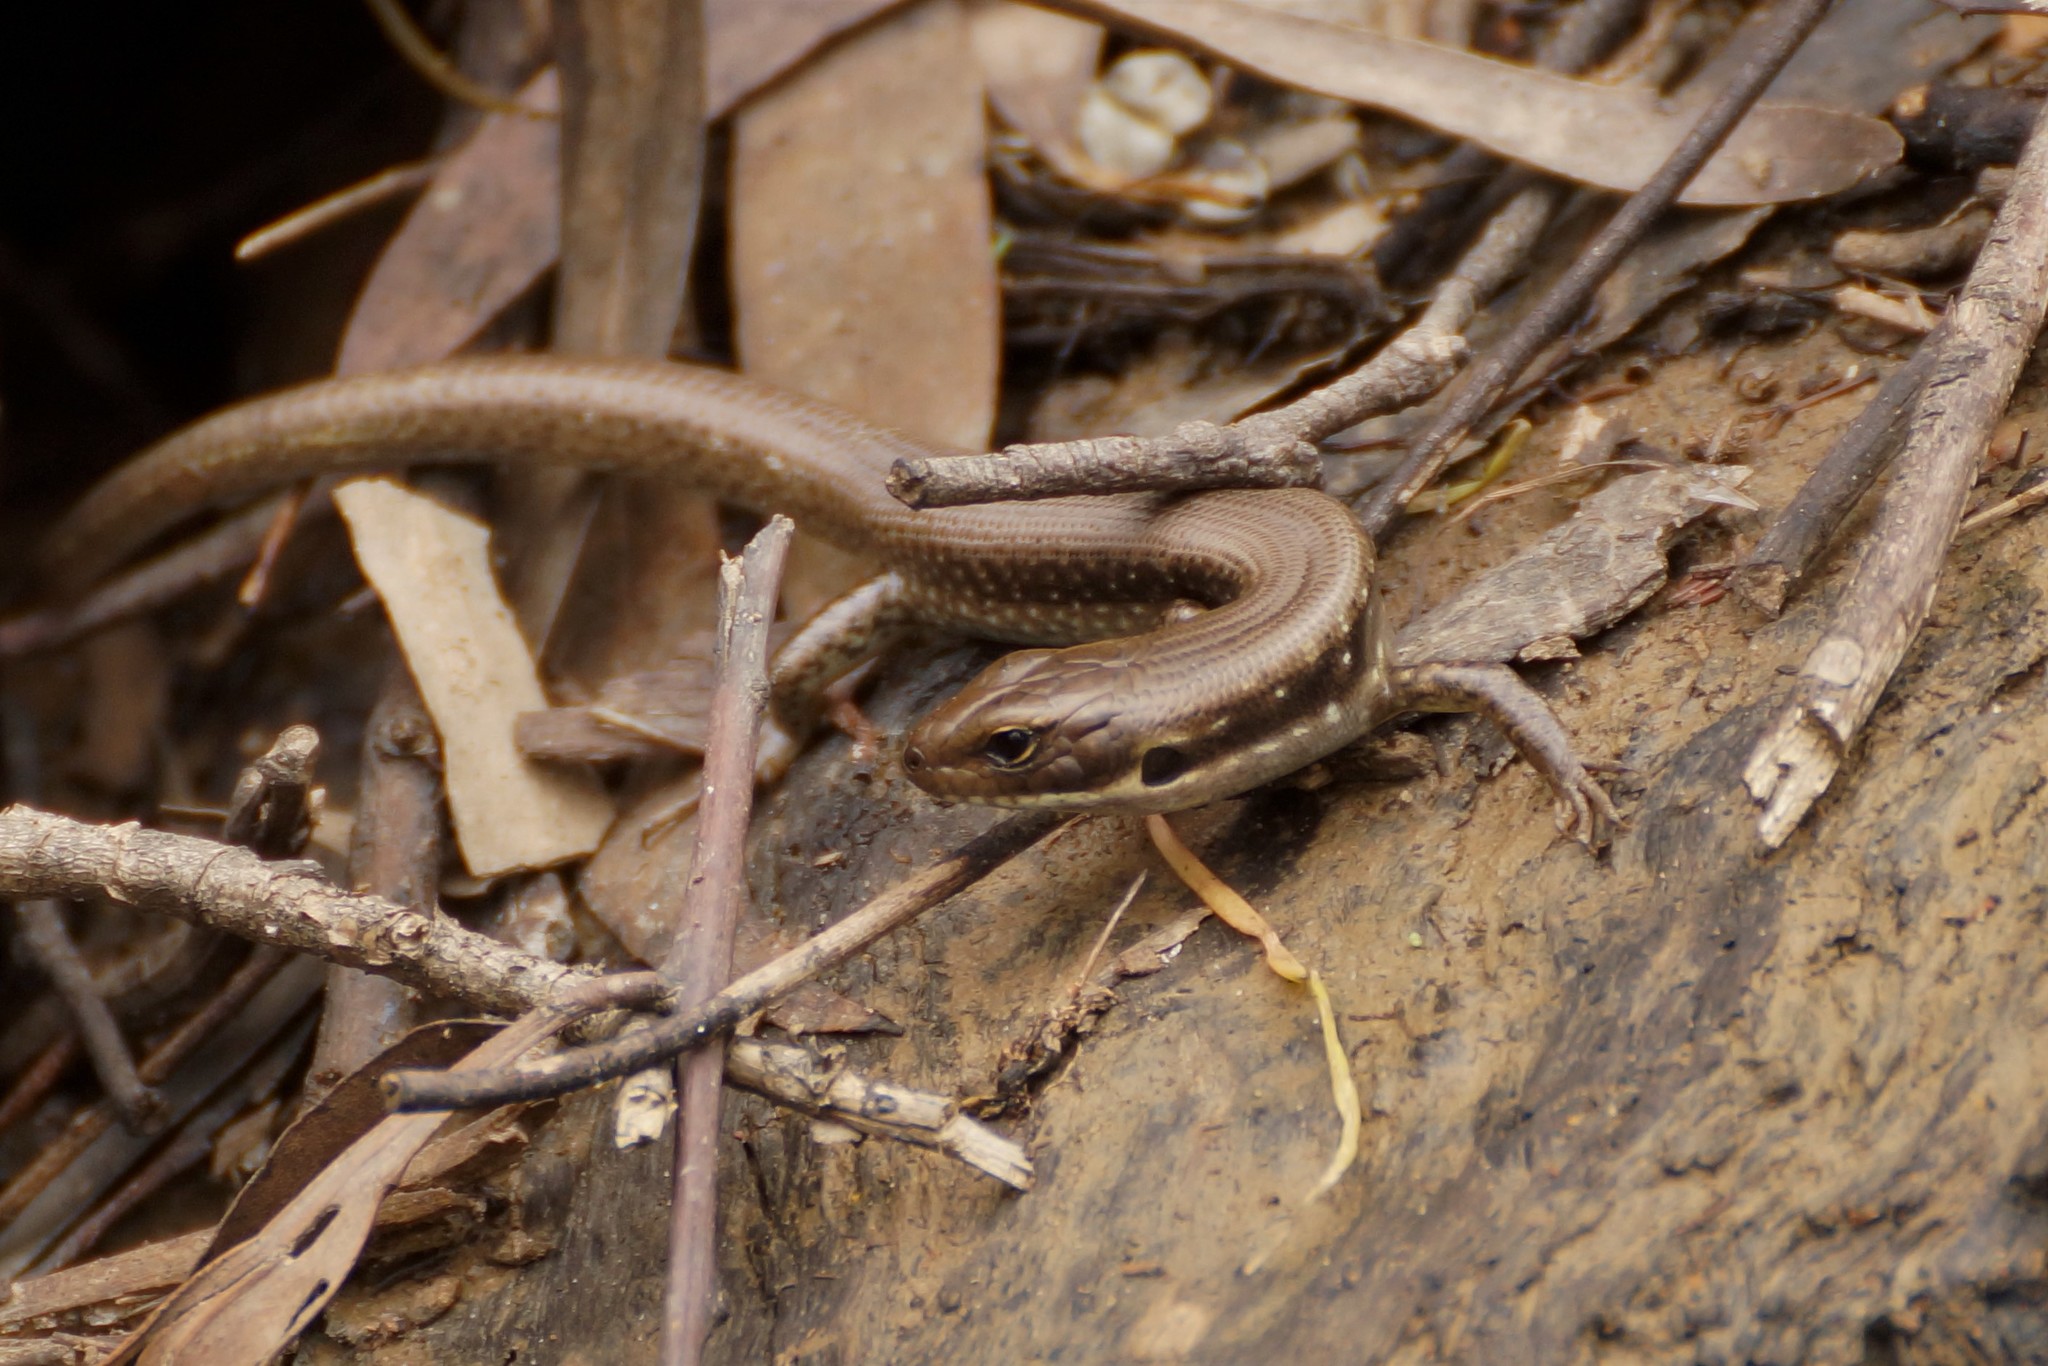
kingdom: Animalia
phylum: Chordata
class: Squamata
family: Scincidae
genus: Eulamprus
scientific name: Eulamprus tympanum
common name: Cool-temperate water-skink
